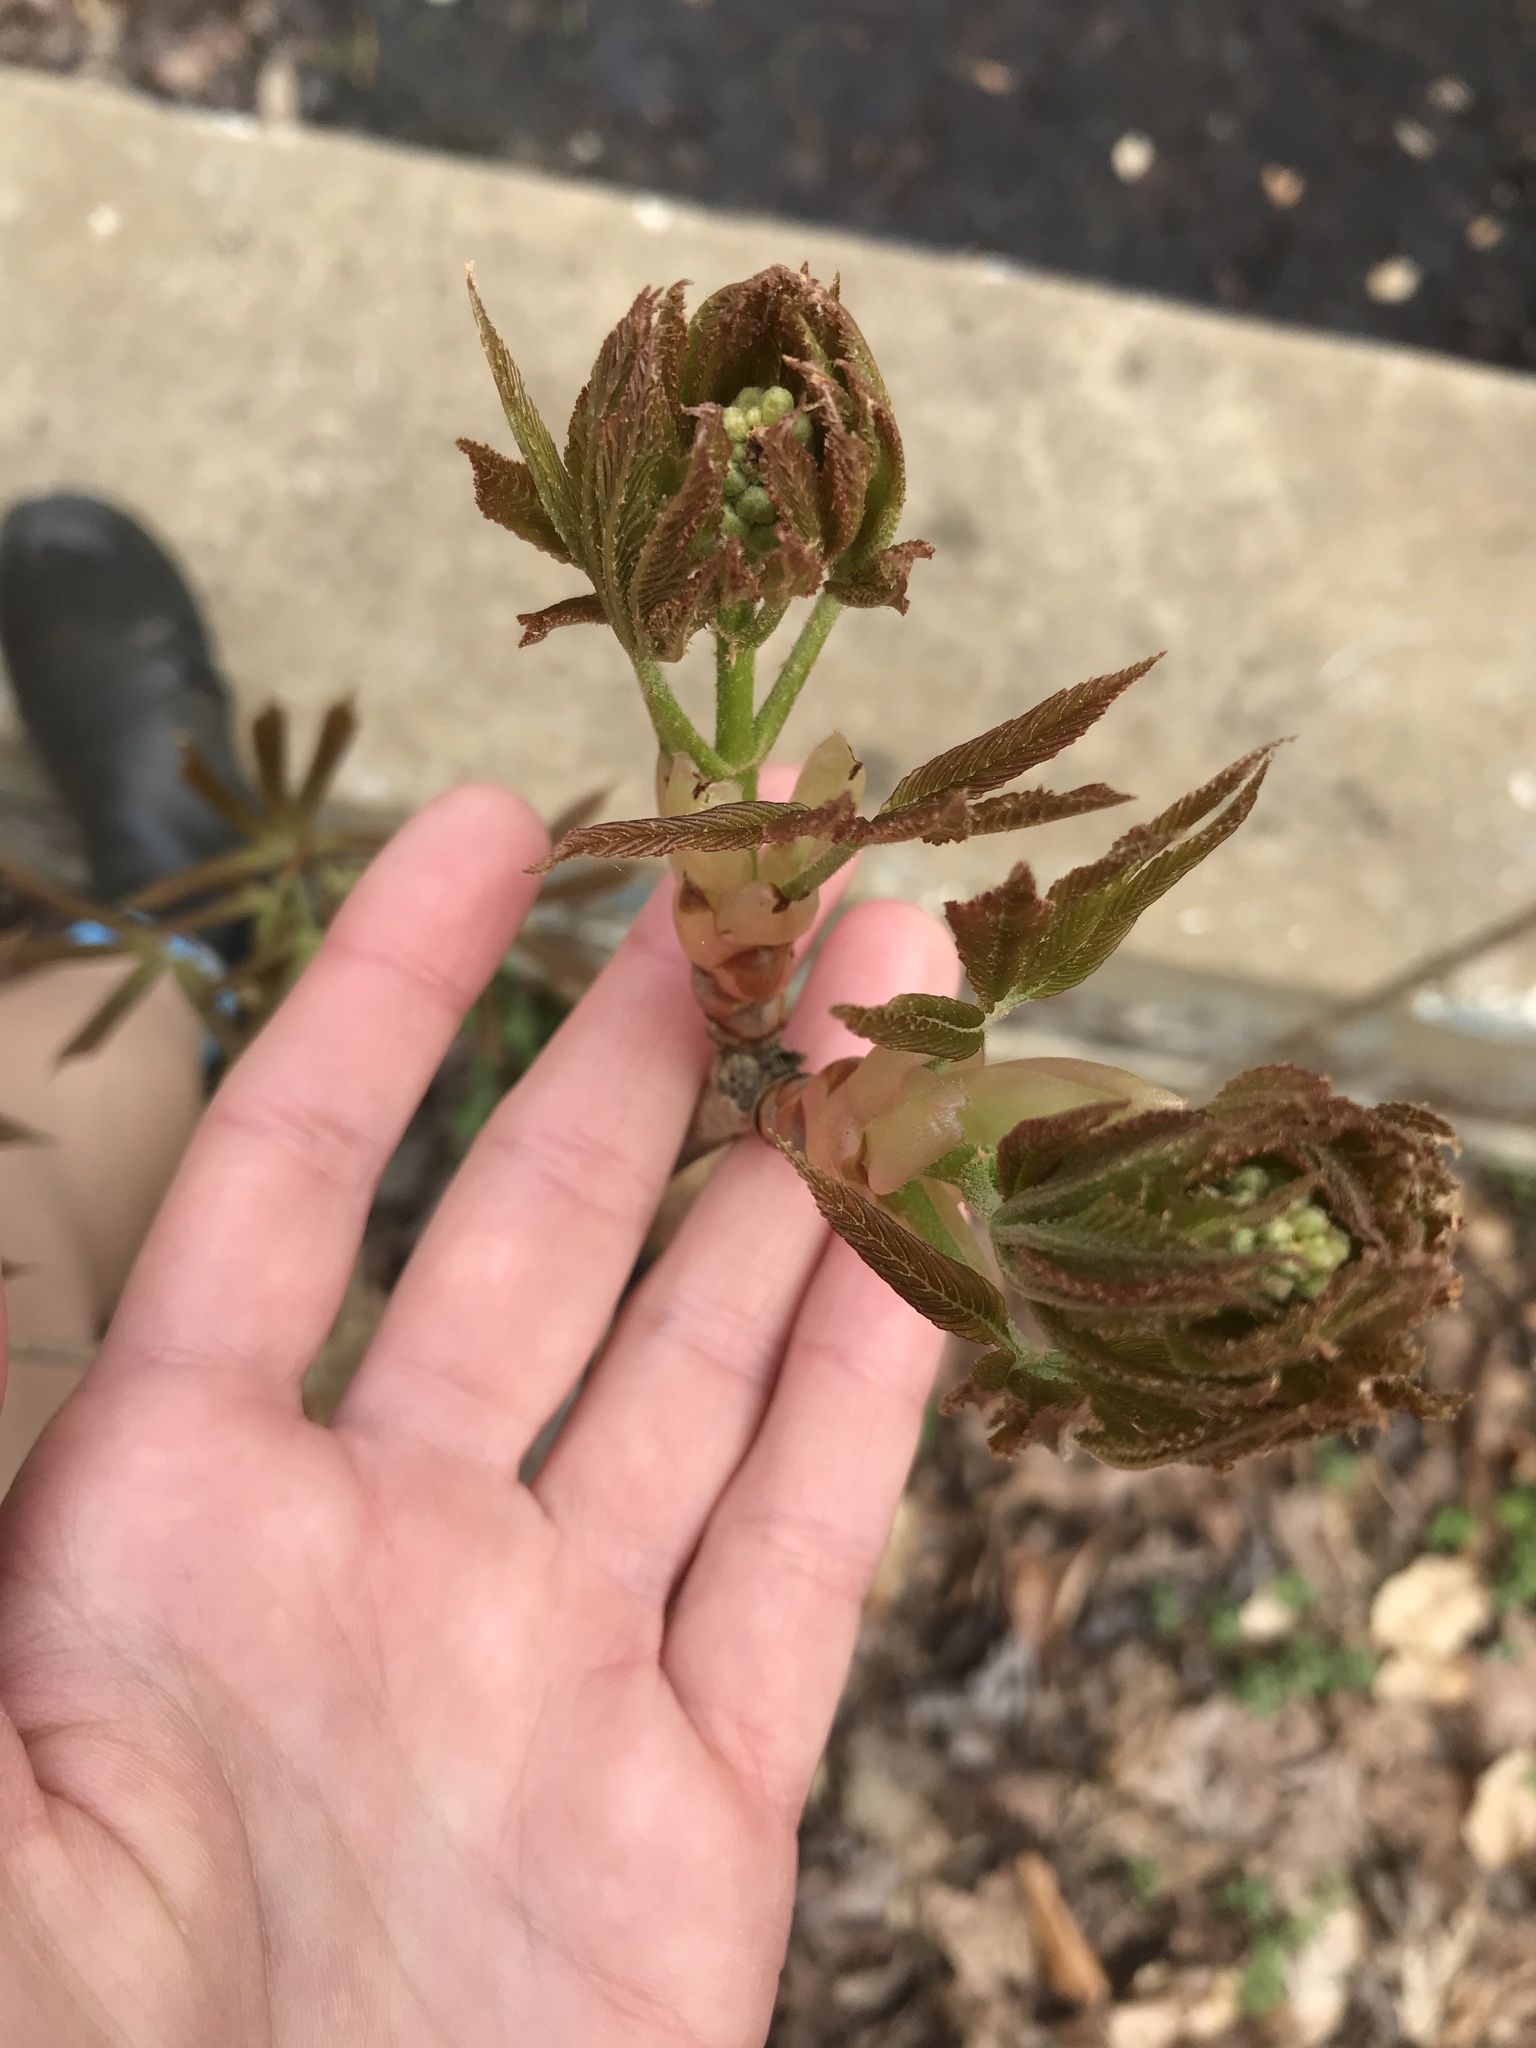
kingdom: Plantae
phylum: Tracheophyta
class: Magnoliopsida
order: Sapindales
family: Sapindaceae
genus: Aesculus
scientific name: Aesculus sylvatica
